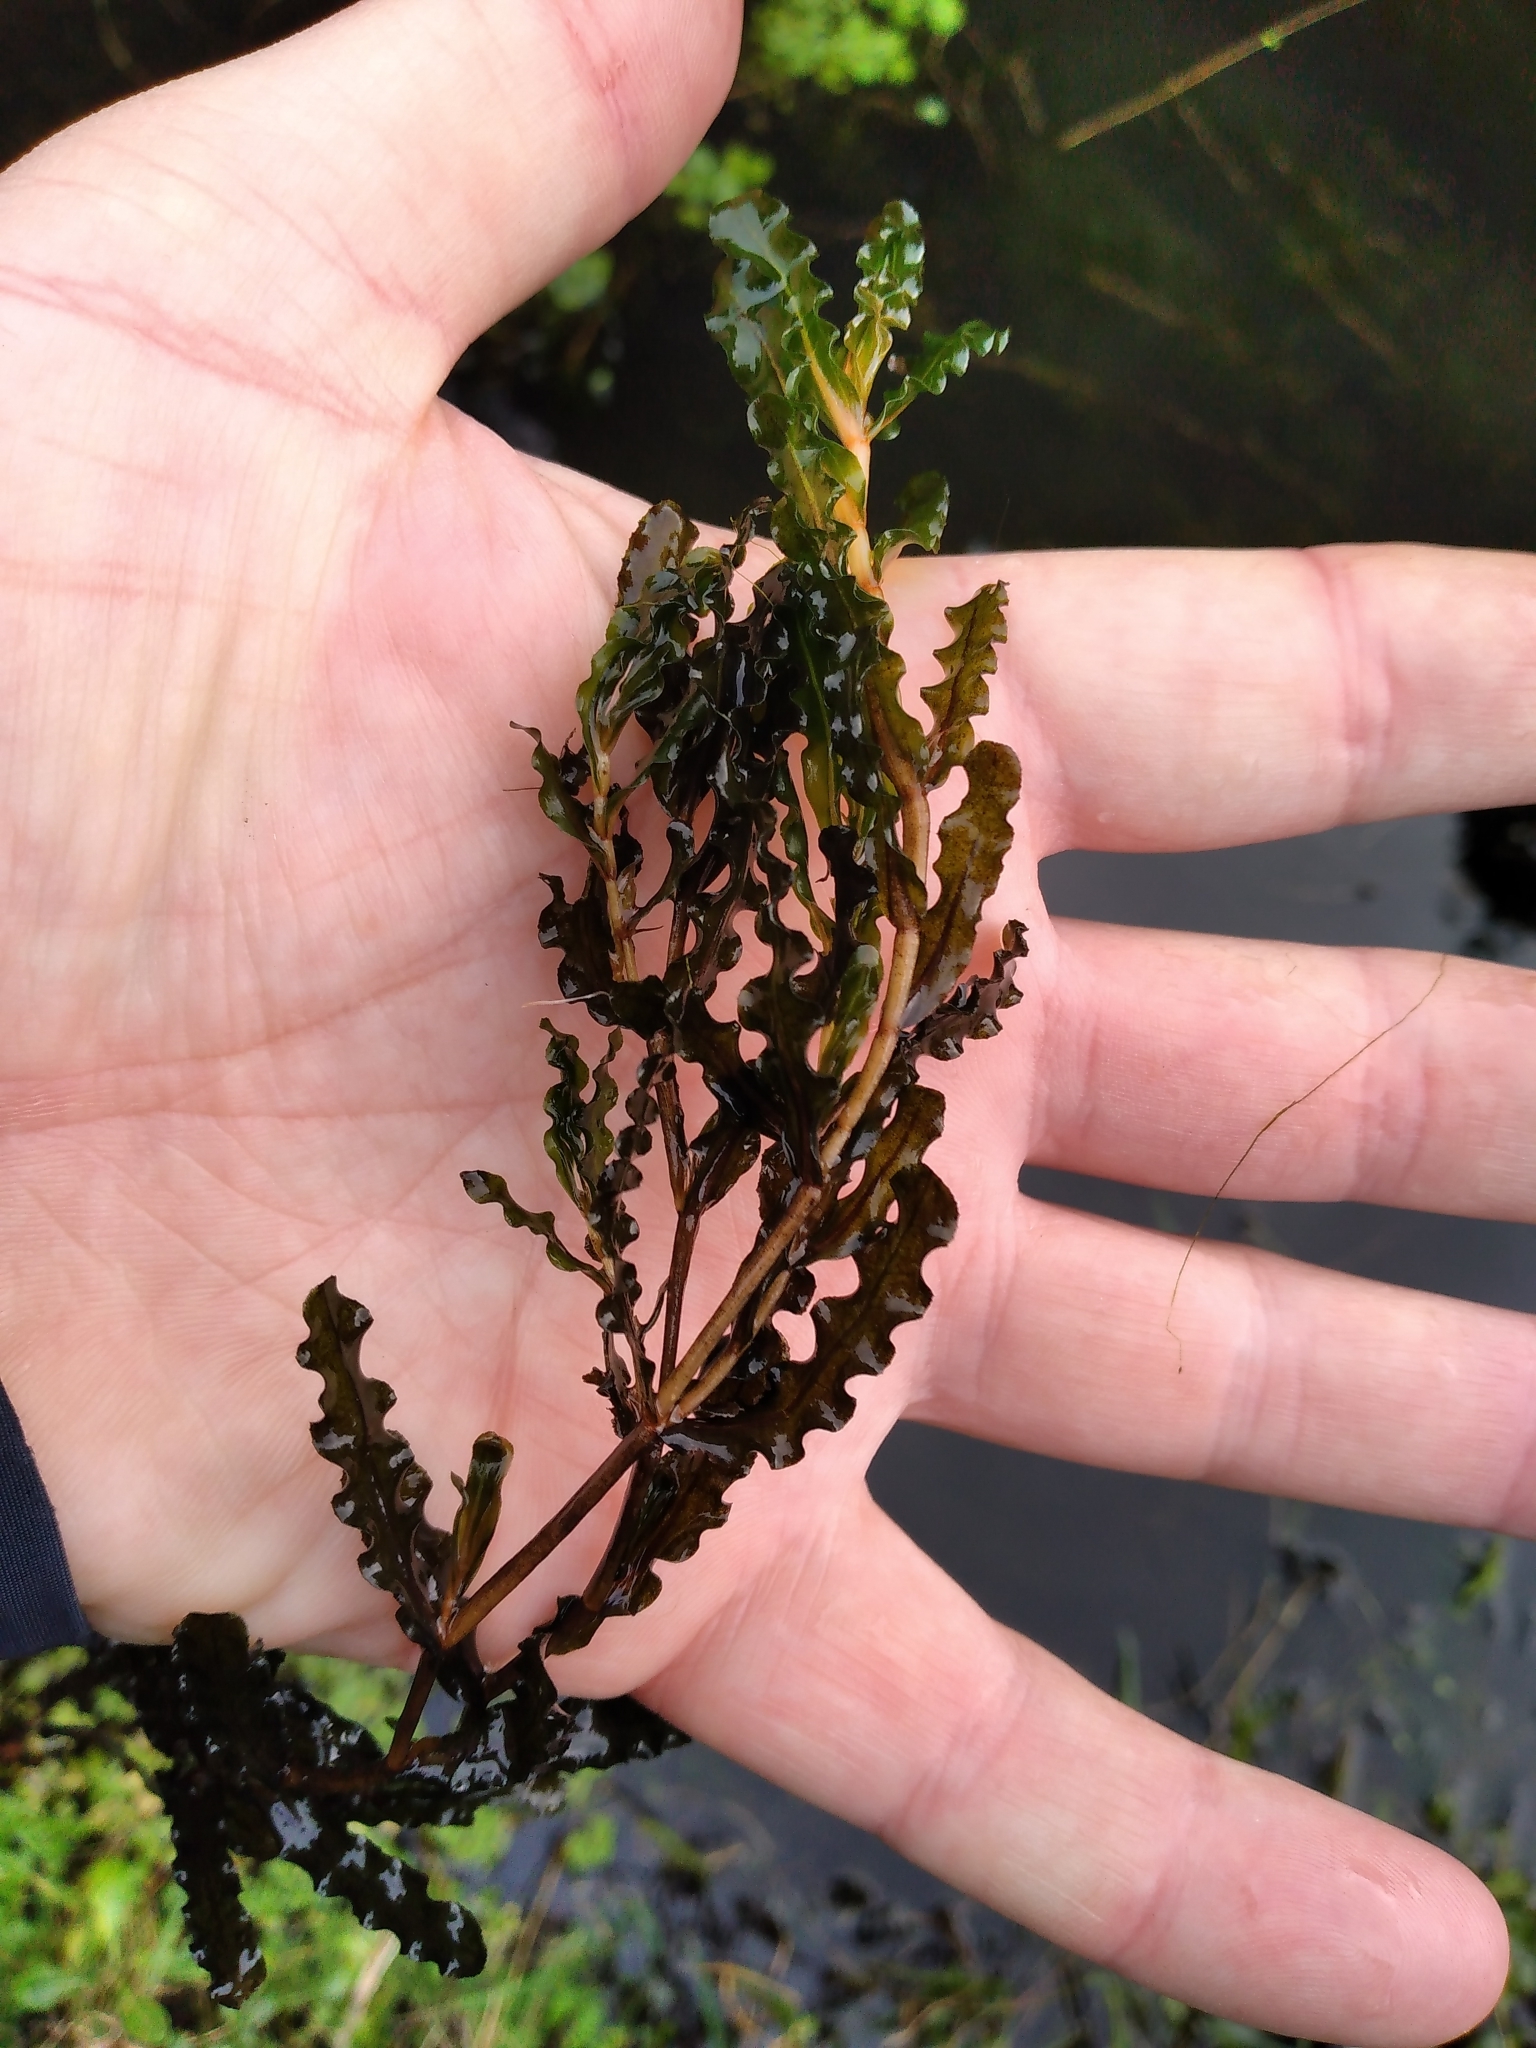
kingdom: Plantae
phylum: Tracheophyta
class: Liliopsida
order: Alismatales
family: Potamogetonaceae
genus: Potamogeton
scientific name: Potamogeton crispus
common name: Curled pondweed
